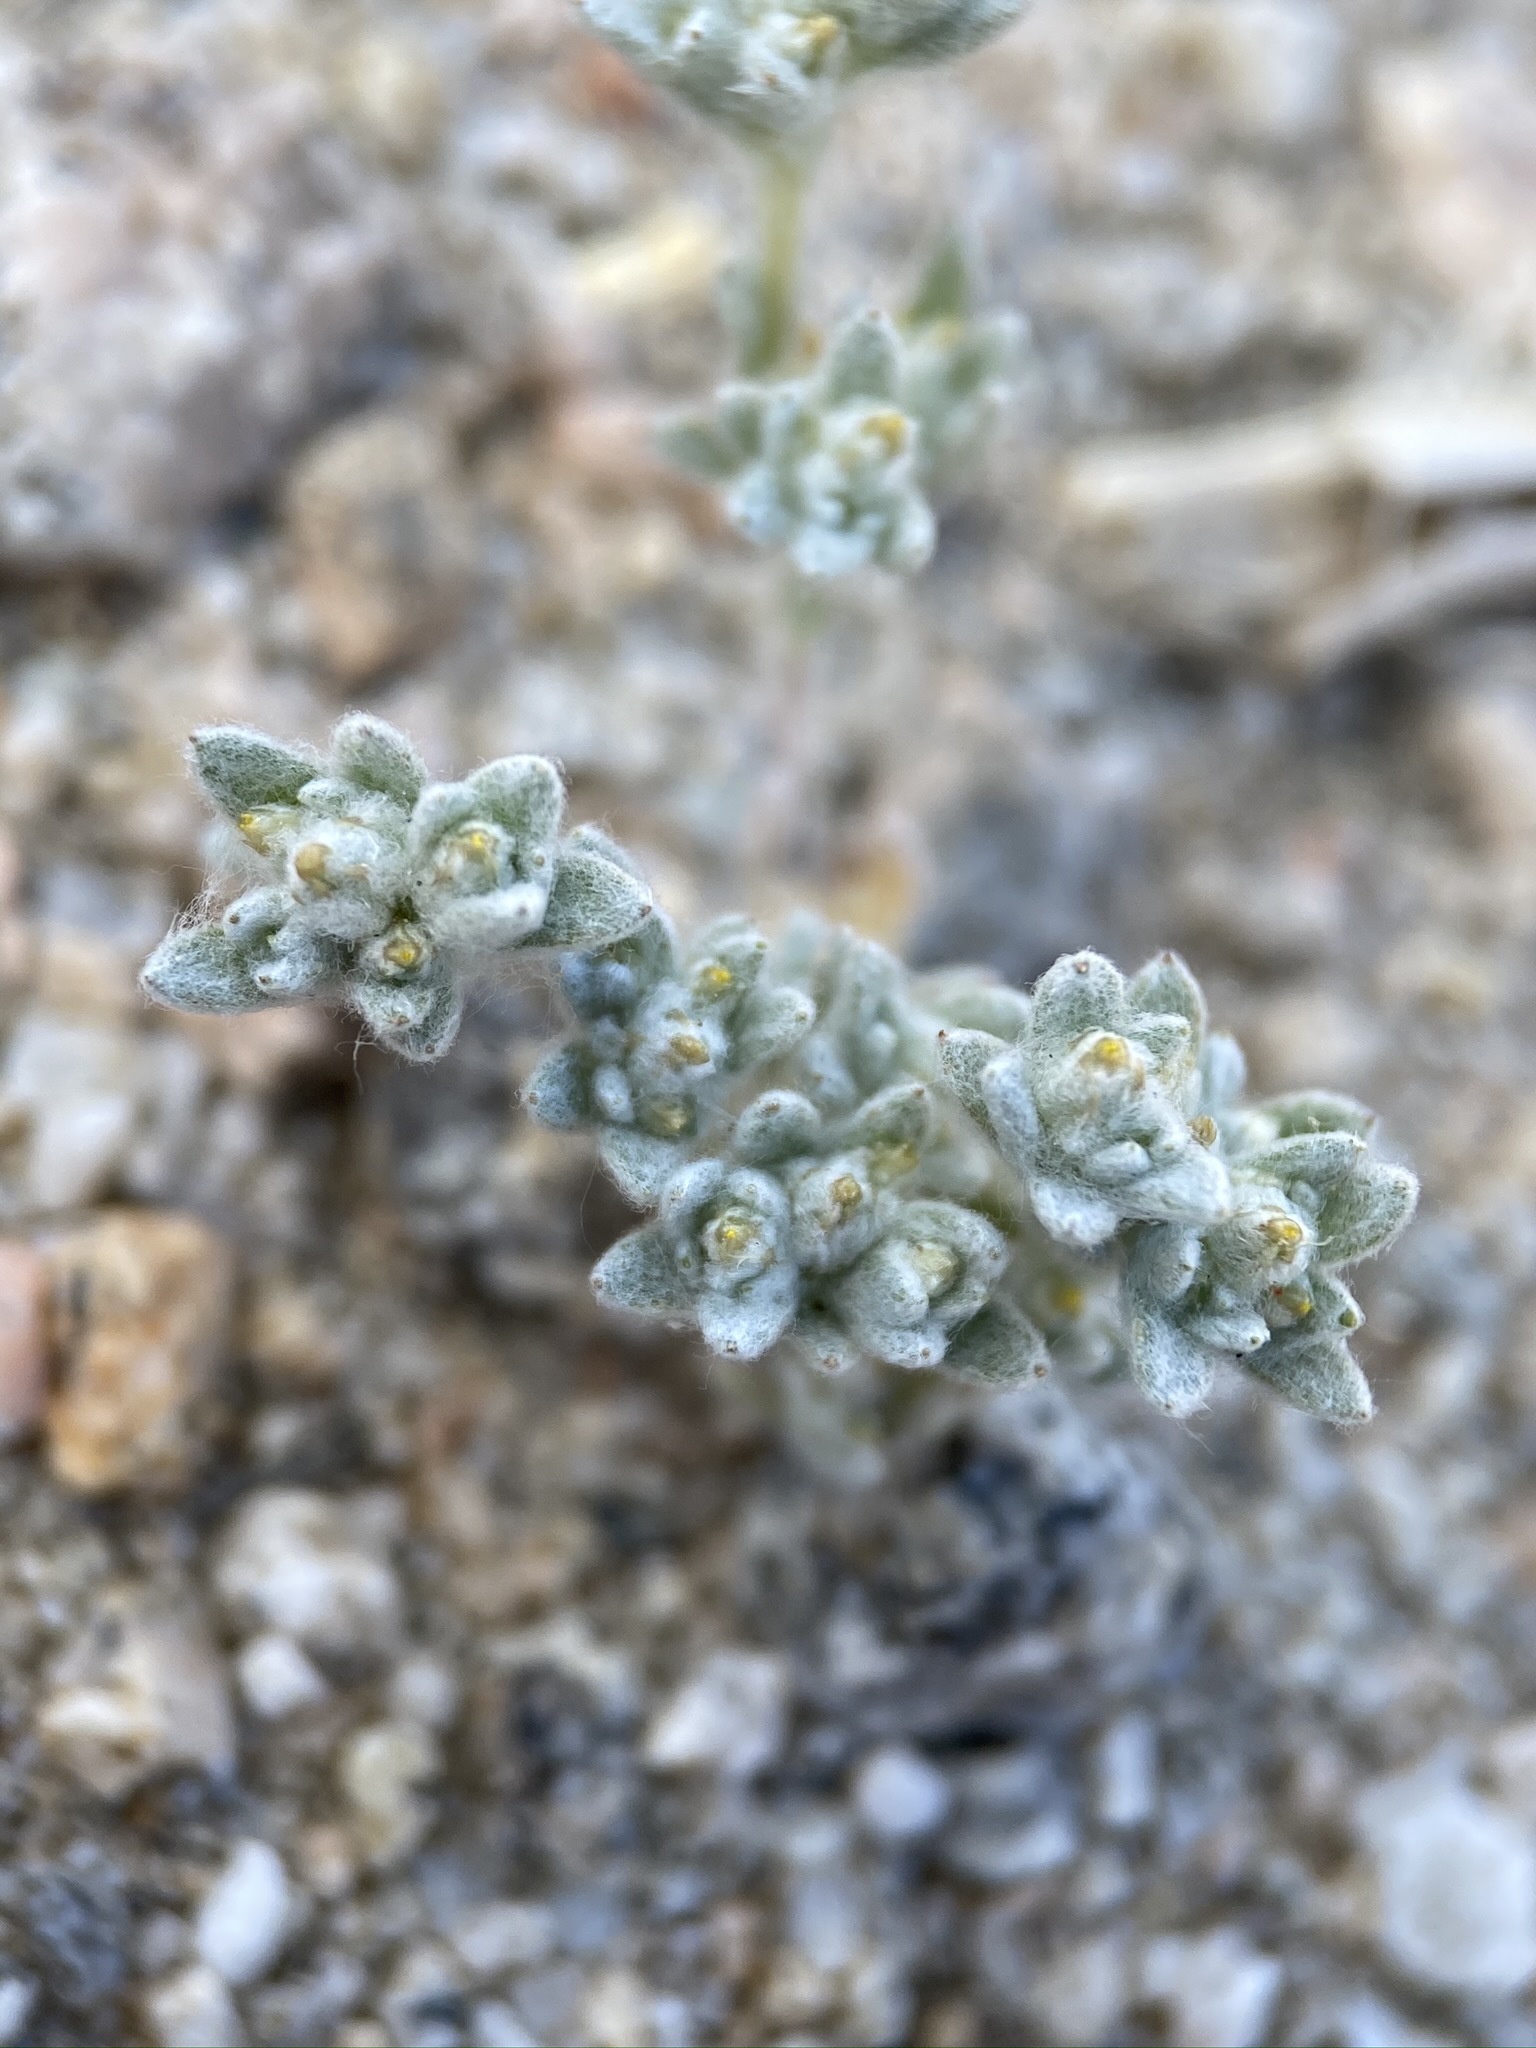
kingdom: Plantae
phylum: Tracheophyta
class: Magnoliopsida
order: Asterales
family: Asteraceae
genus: Logfia
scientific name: Logfia depressa
